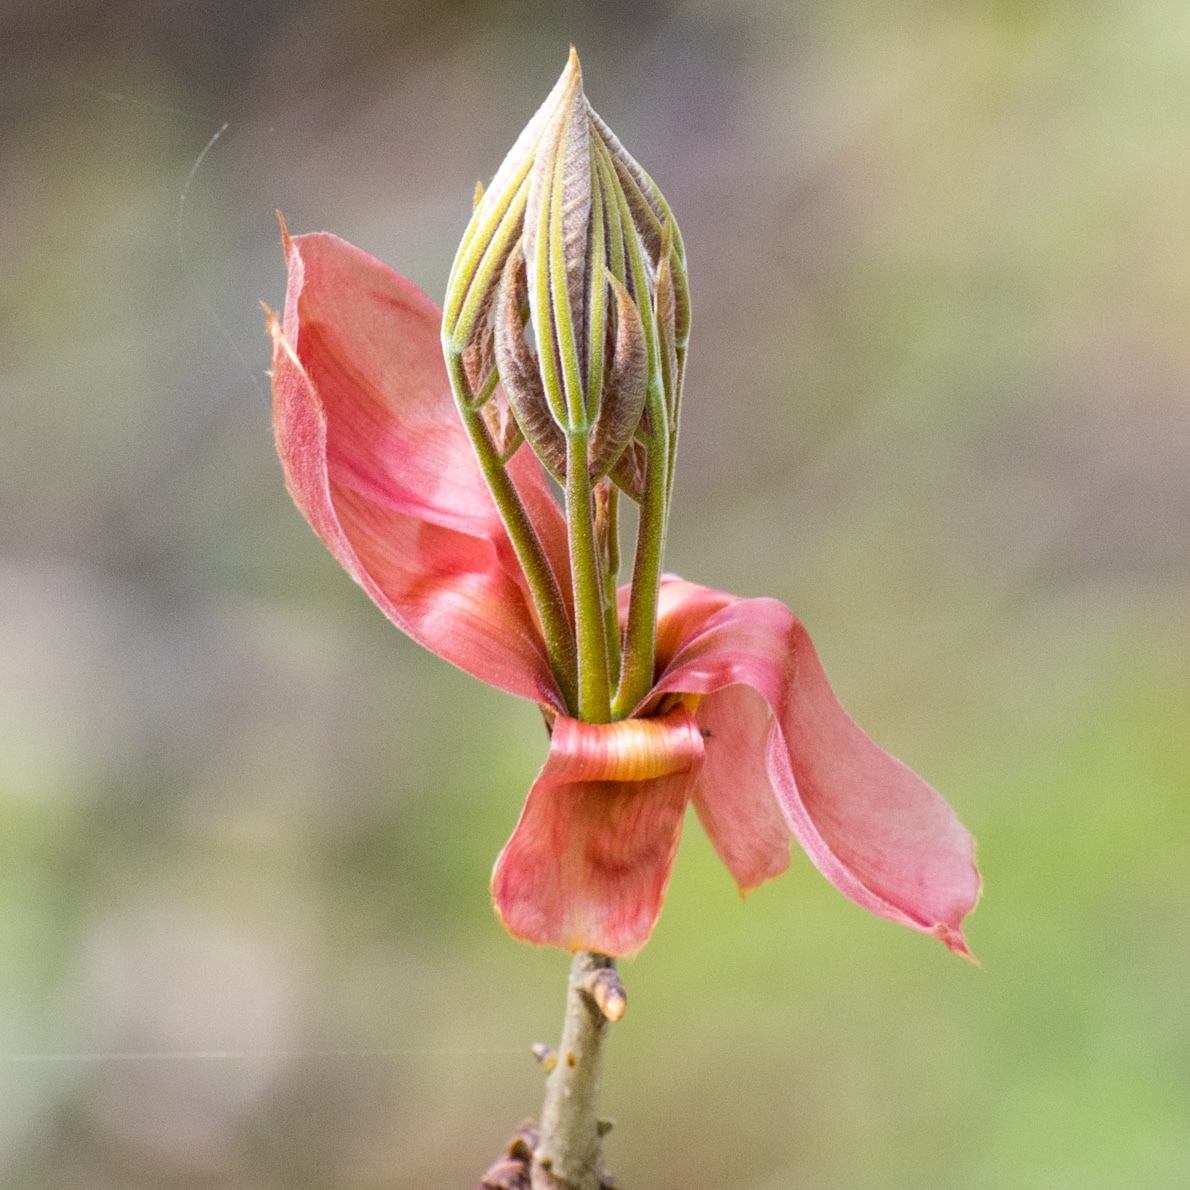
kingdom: Plantae
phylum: Tracheophyta
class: Magnoliopsida
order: Fagales
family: Juglandaceae
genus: Carya
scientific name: Carya ovata
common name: Shagbark hickory
